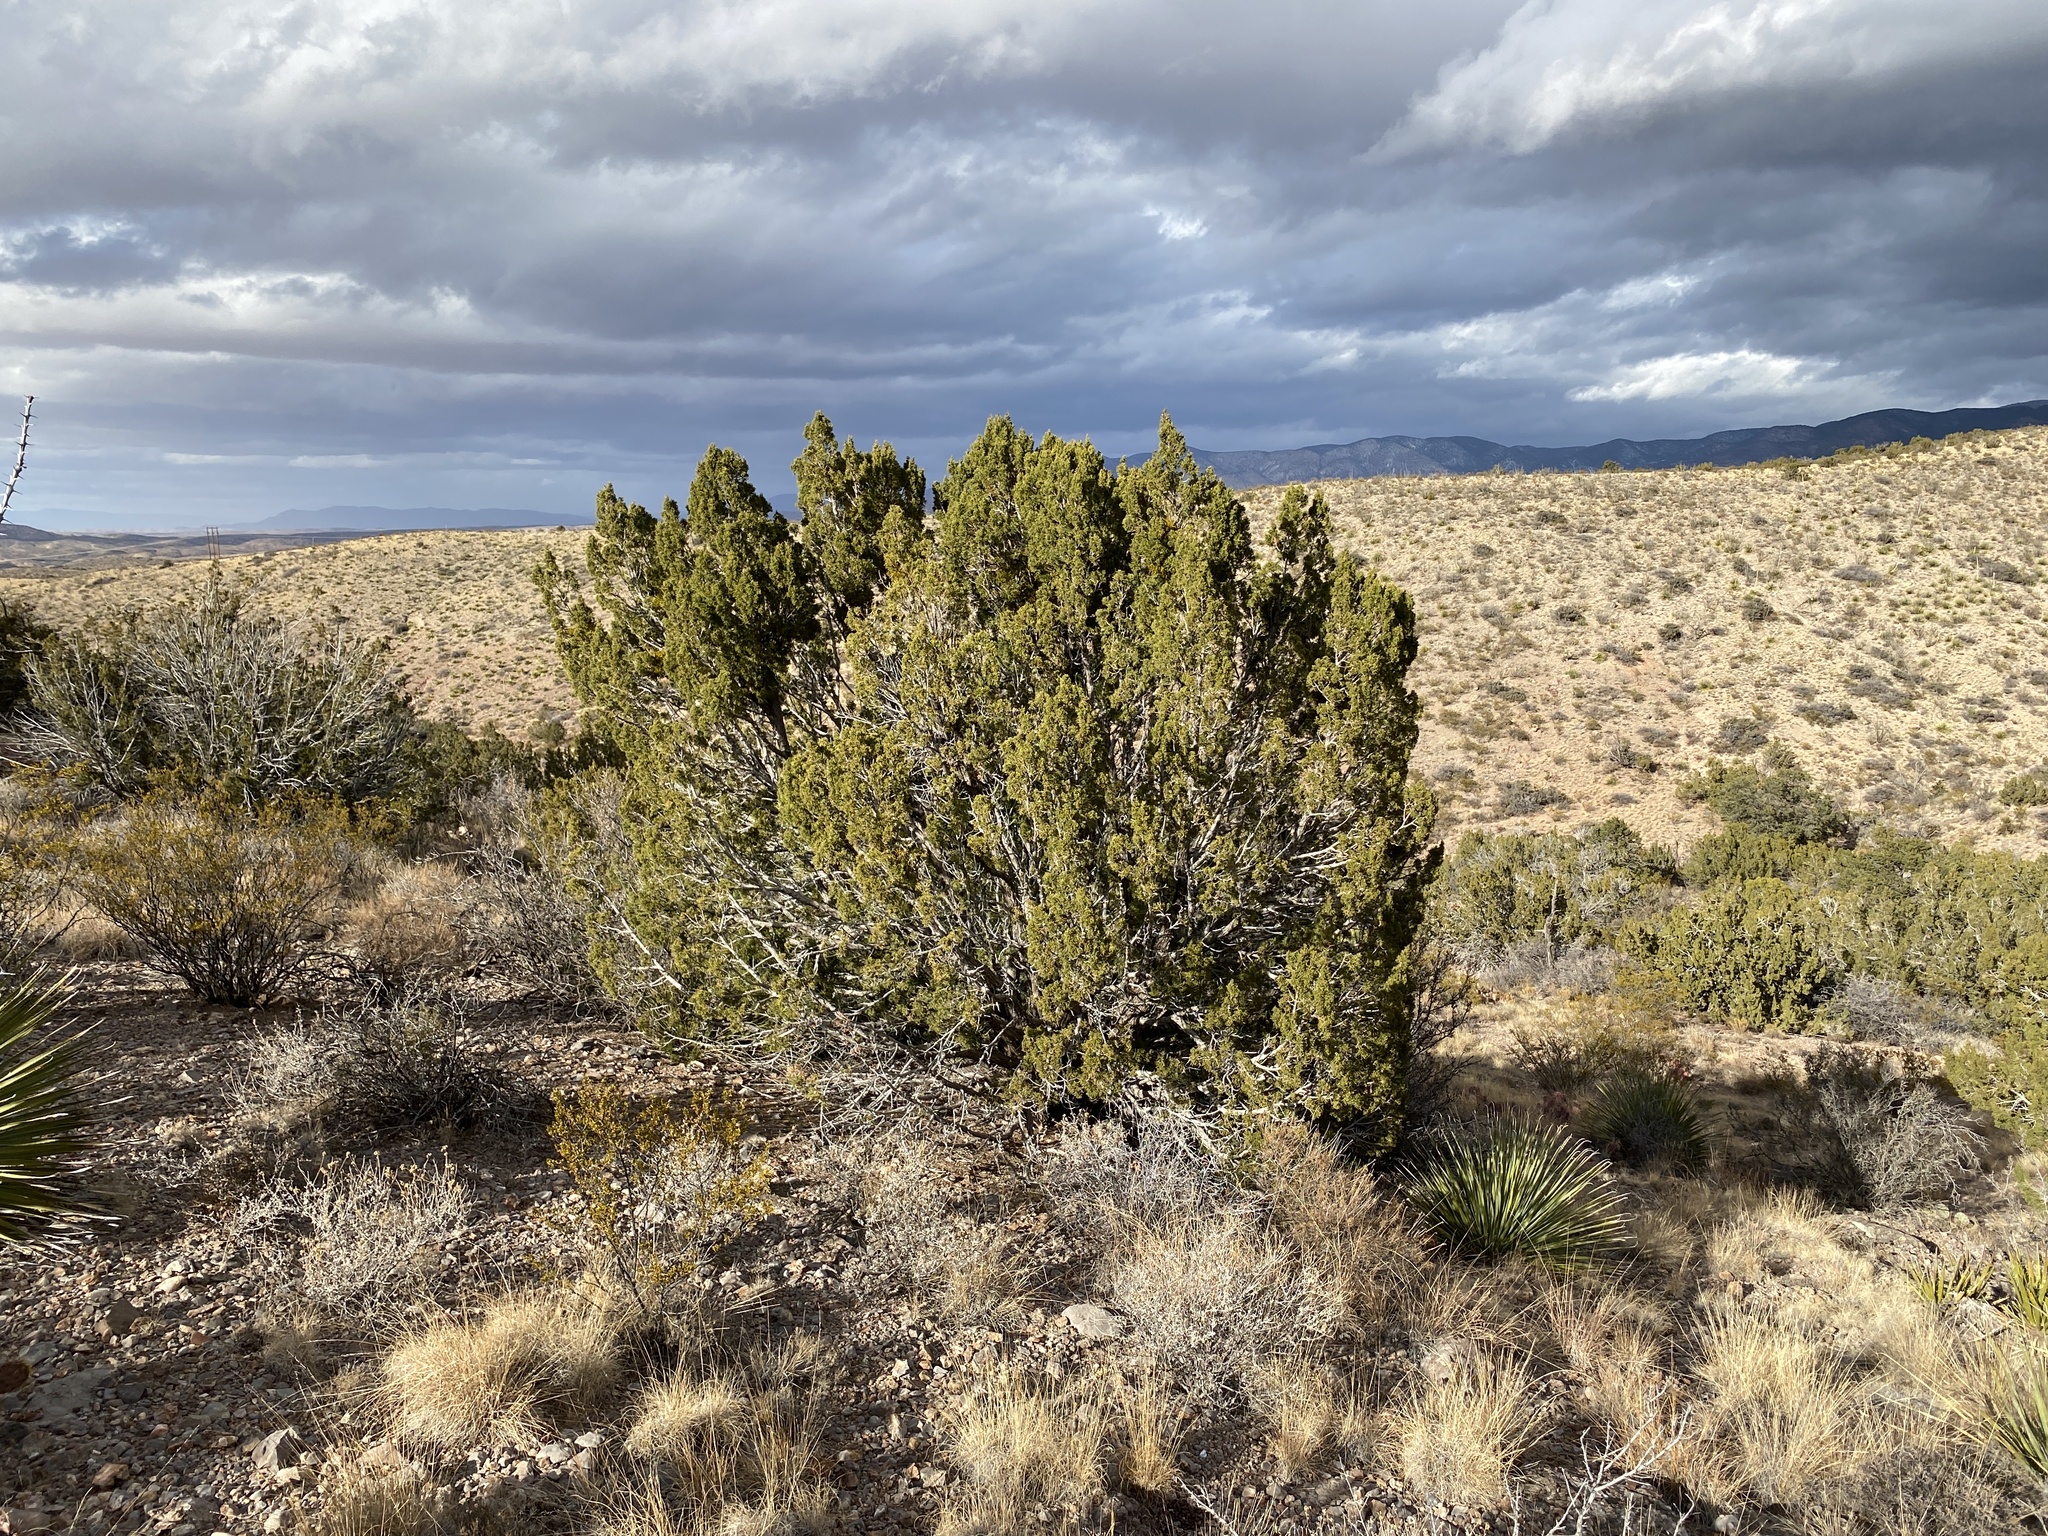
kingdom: Plantae
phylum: Tracheophyta
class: Pinopsida
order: Pinales
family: Cupressaceae
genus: Juniperus
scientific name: Juniperus monosperma
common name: One-seed juniper
